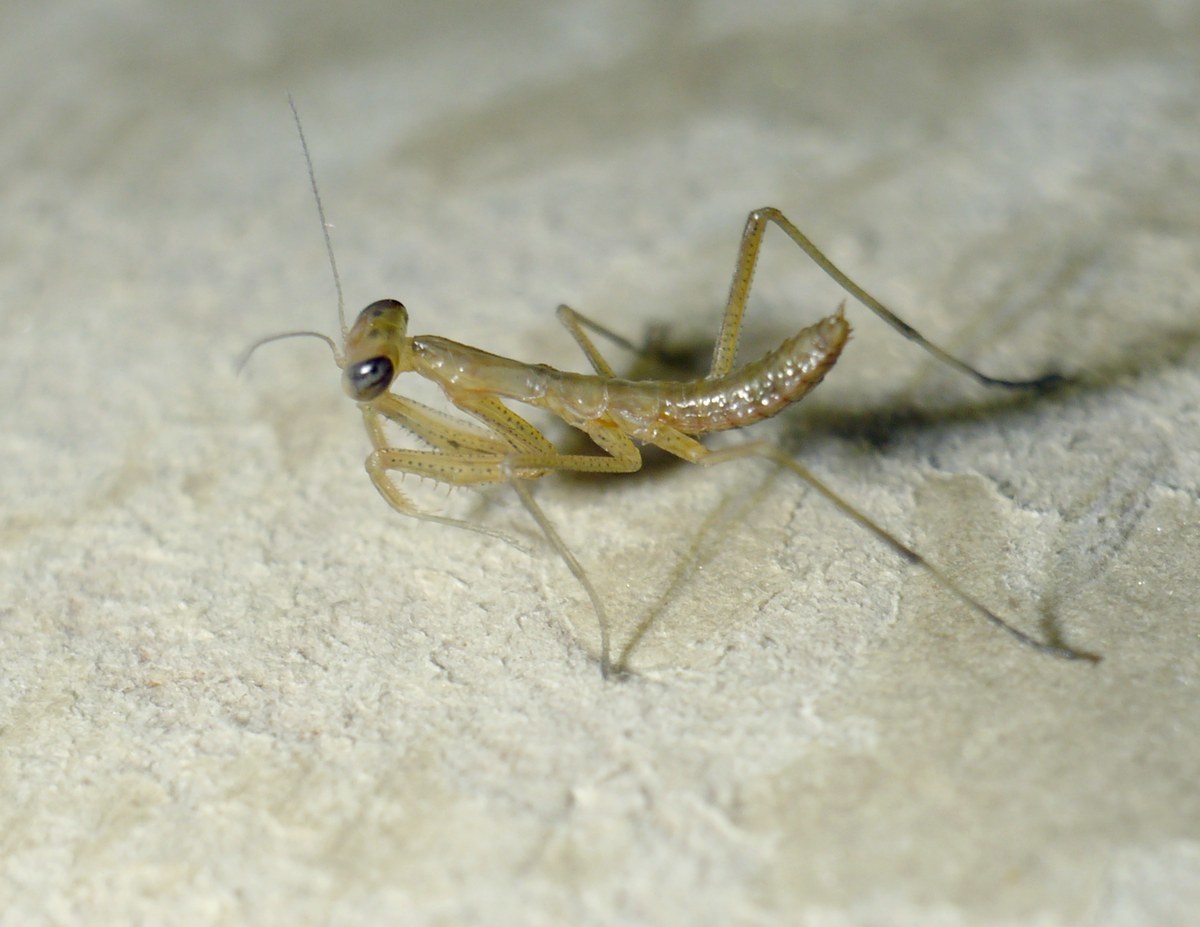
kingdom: Animalia
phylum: Arthropoda
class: Insecta
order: Mantodea
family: Mantidae
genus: Mantis
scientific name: Mantis religiosa
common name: Praying mantis
